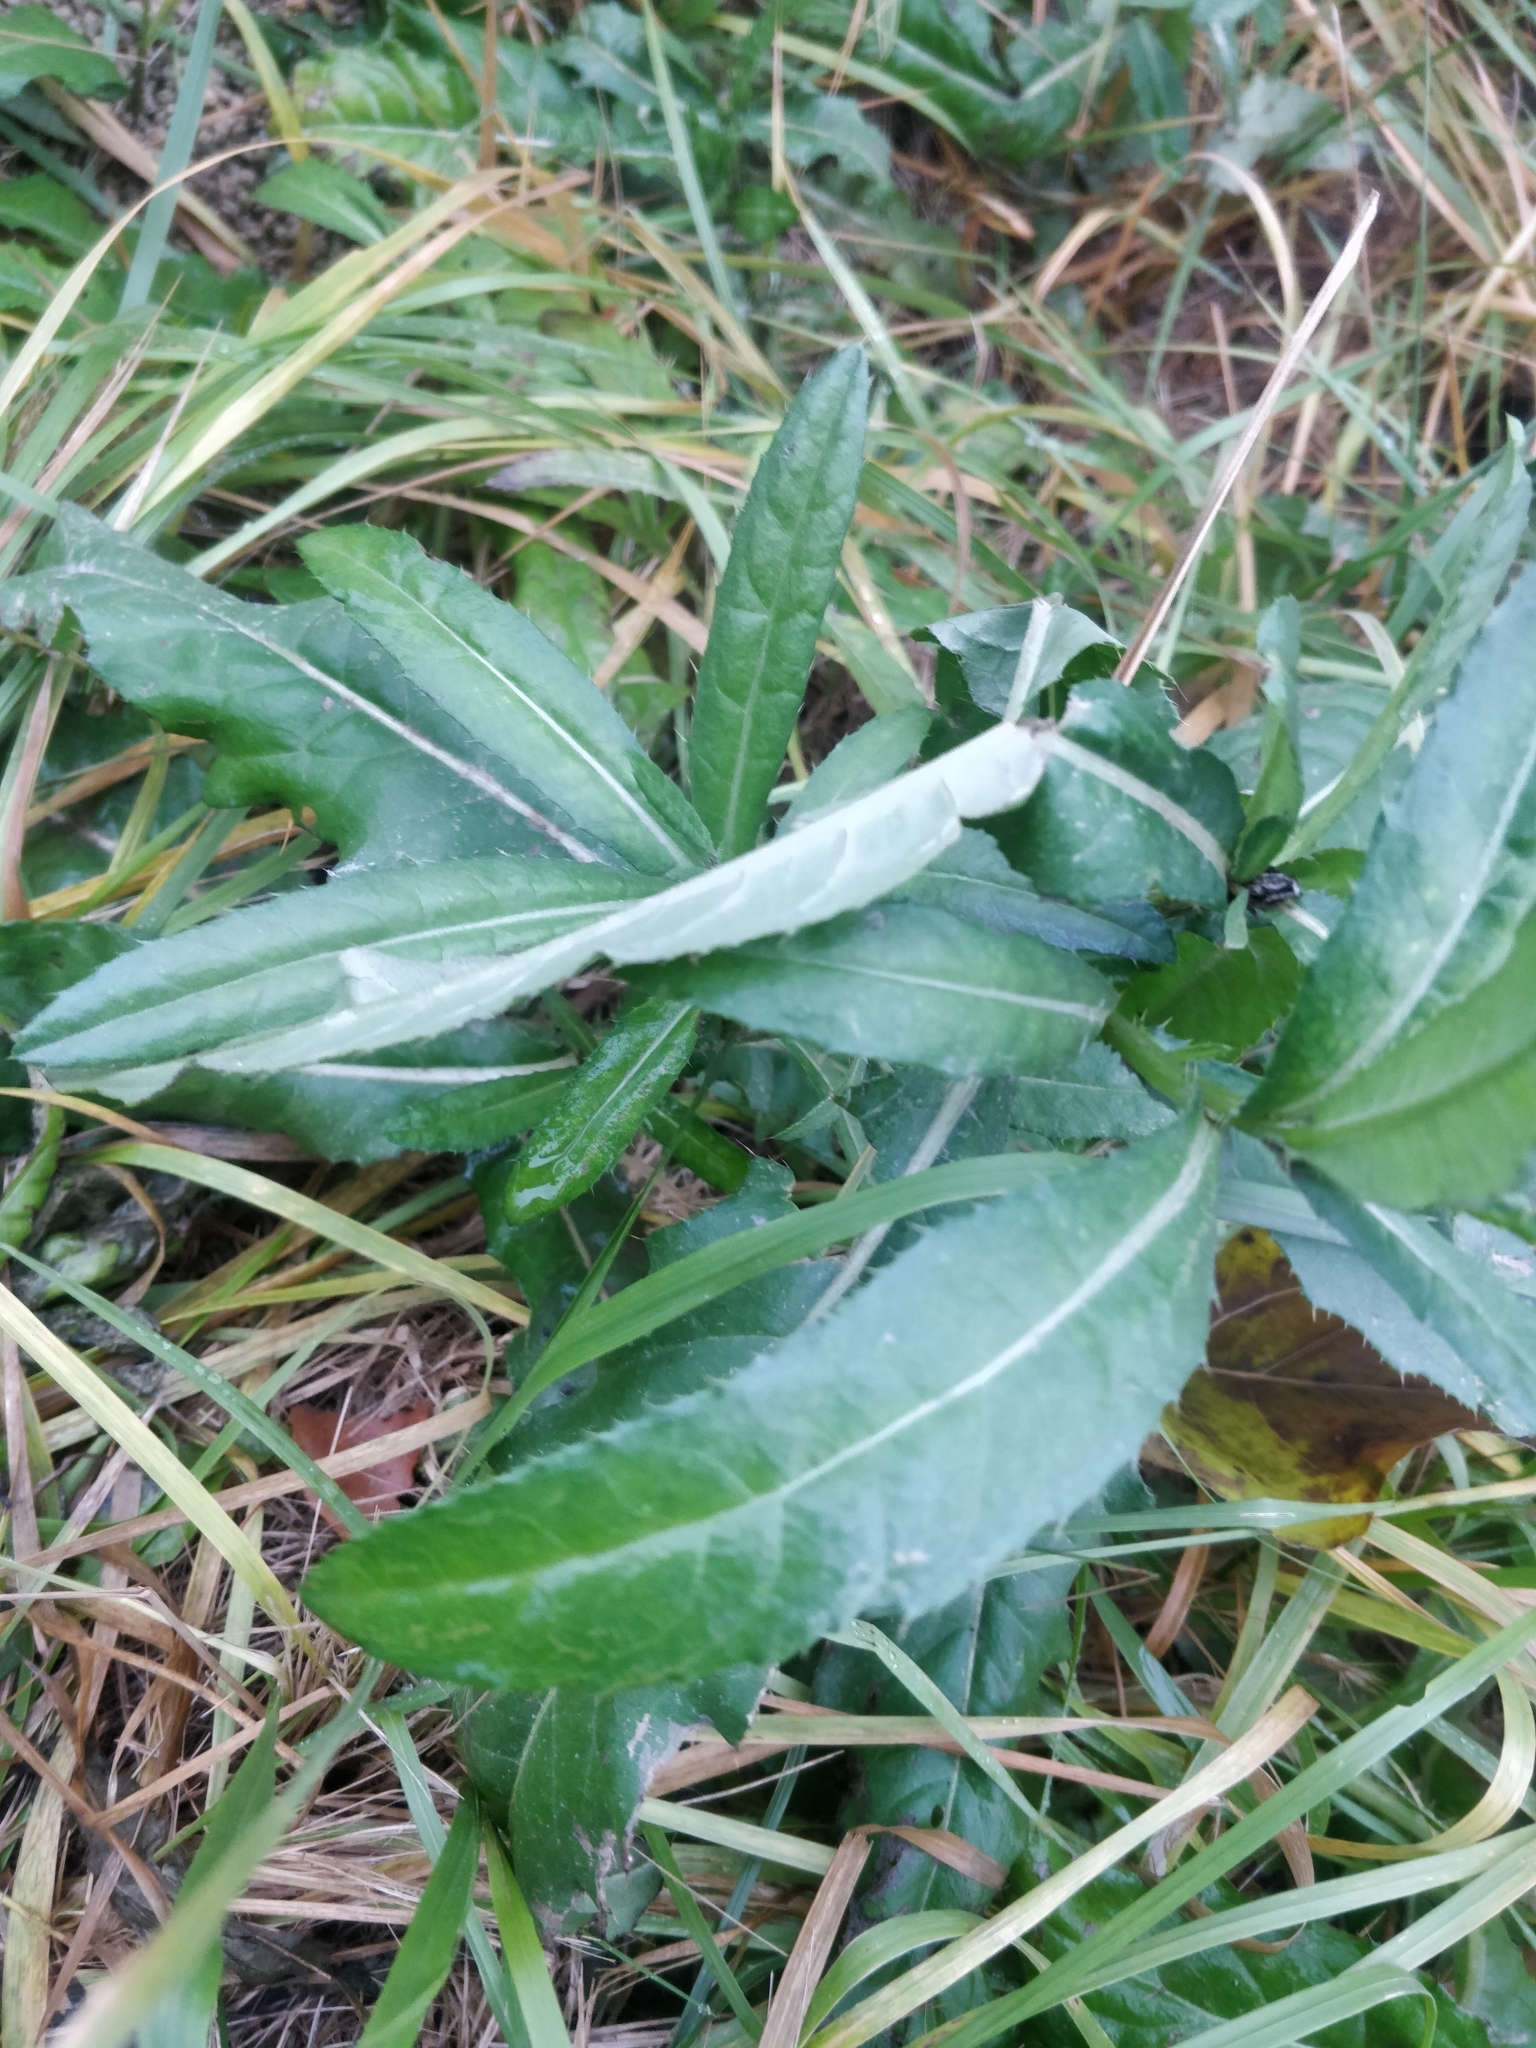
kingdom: Plantae
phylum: Tracheophyta
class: Magnoliopsida
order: Asterales
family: Asteraceae
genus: Cirsium
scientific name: Cirsium arvense
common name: Creeping thistle
